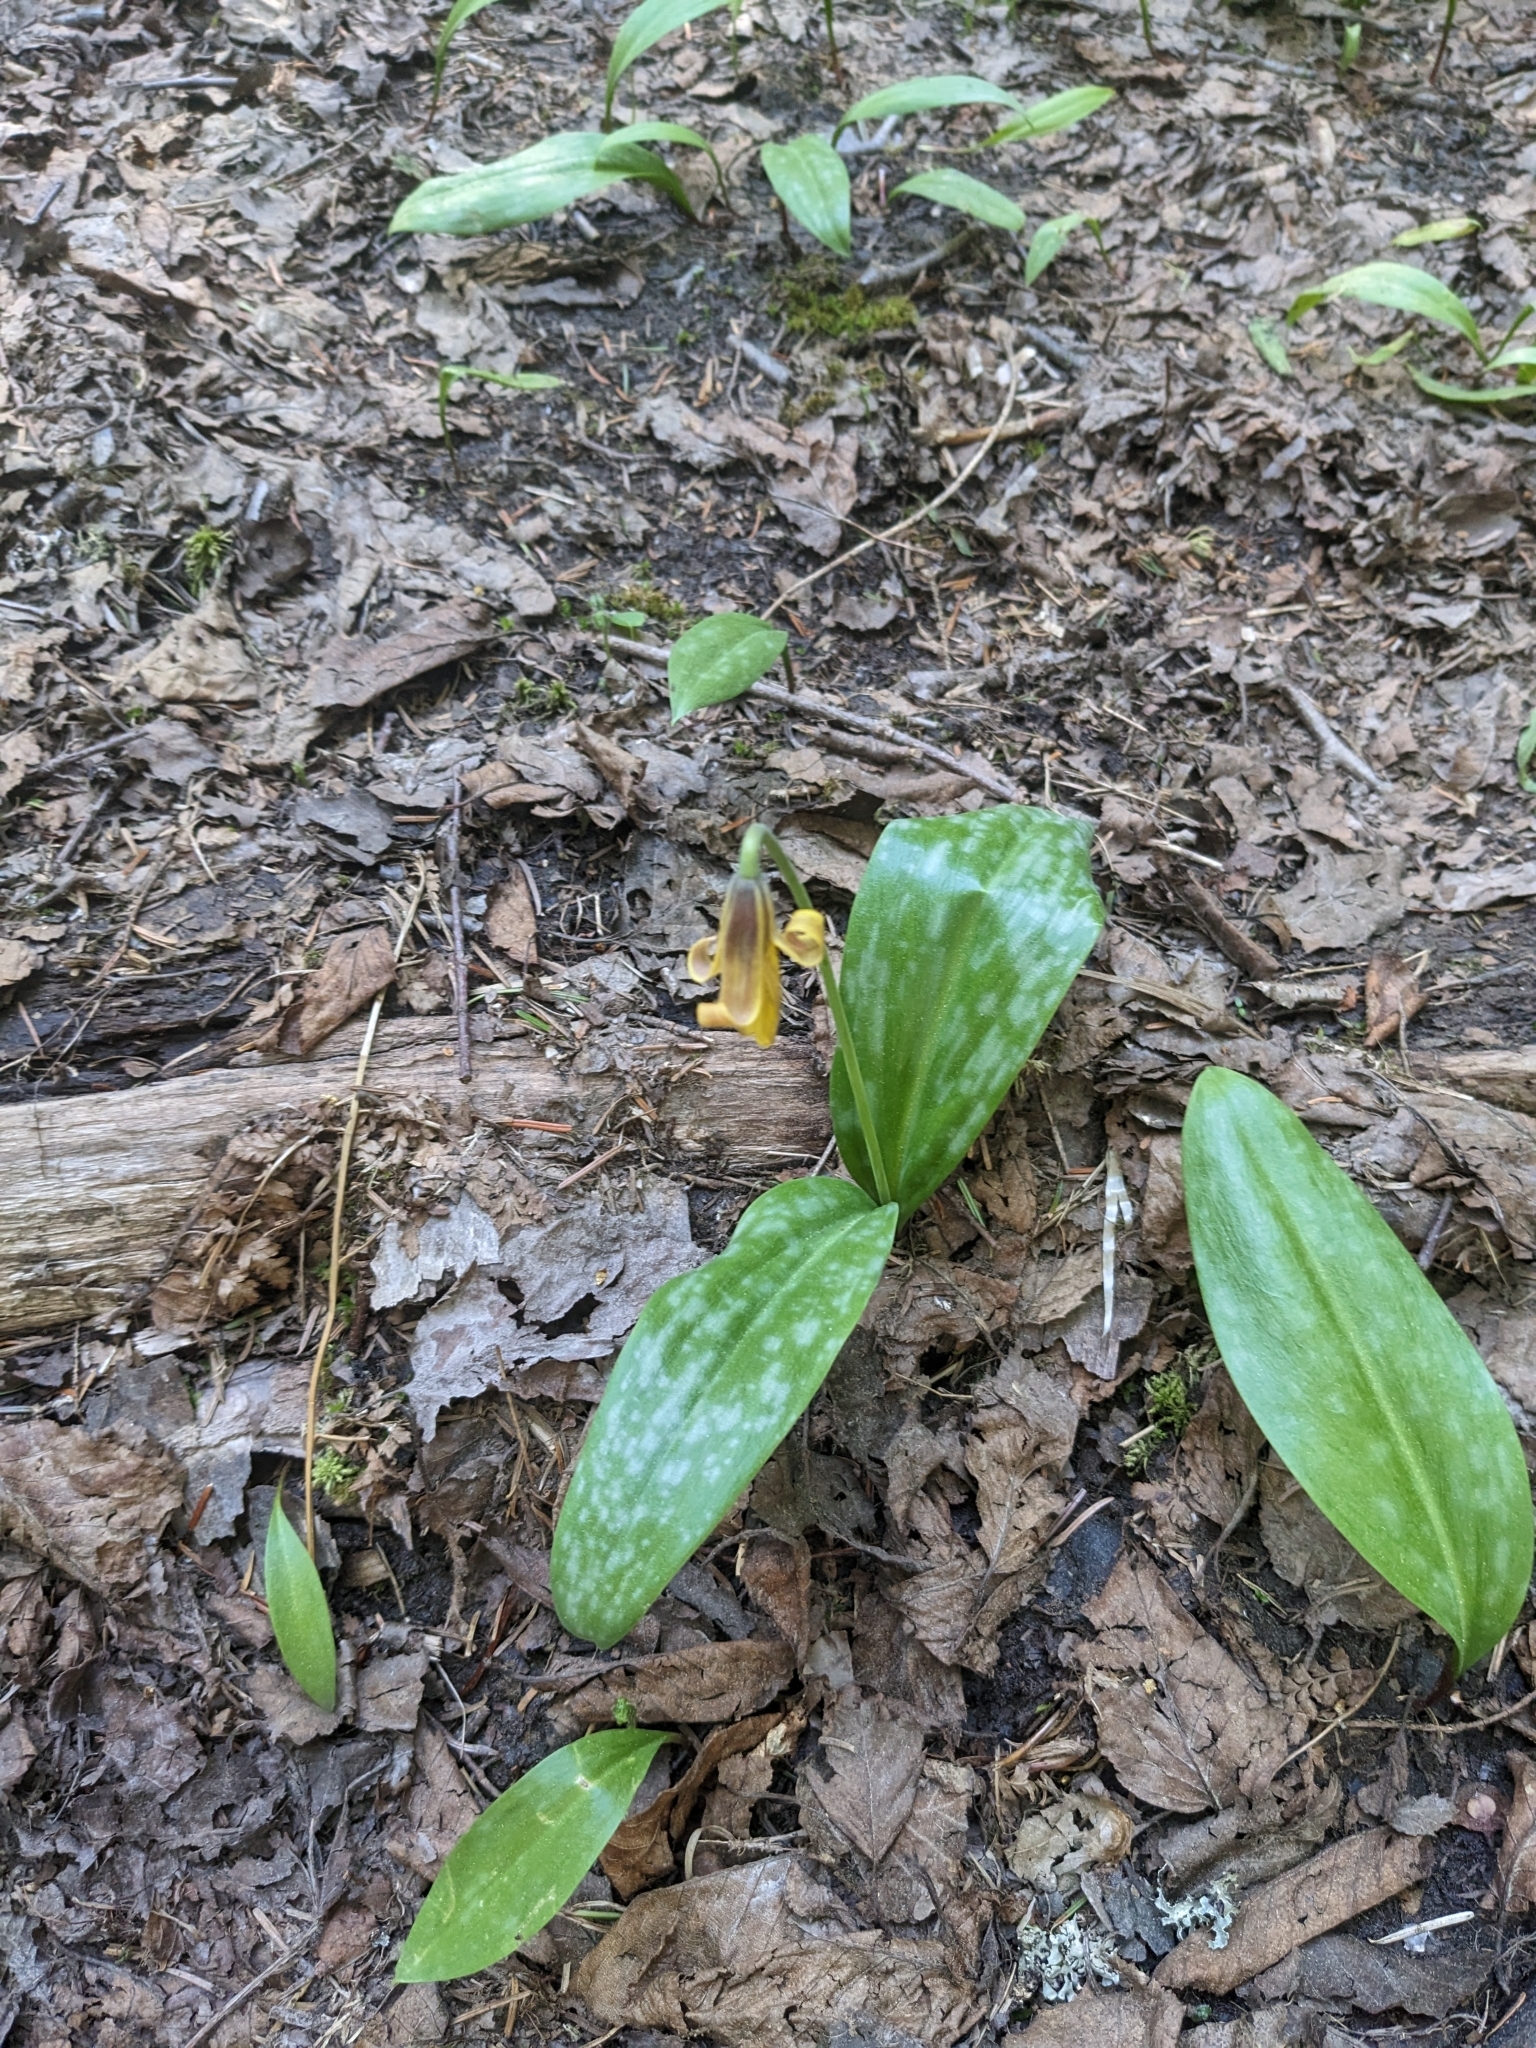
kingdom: Plantae
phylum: Tracheophyta
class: Liliopsida
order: Liliales
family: Liliaceae
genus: Erythronium
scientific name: Erythronium americanum
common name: Yellow adder's-tongue
